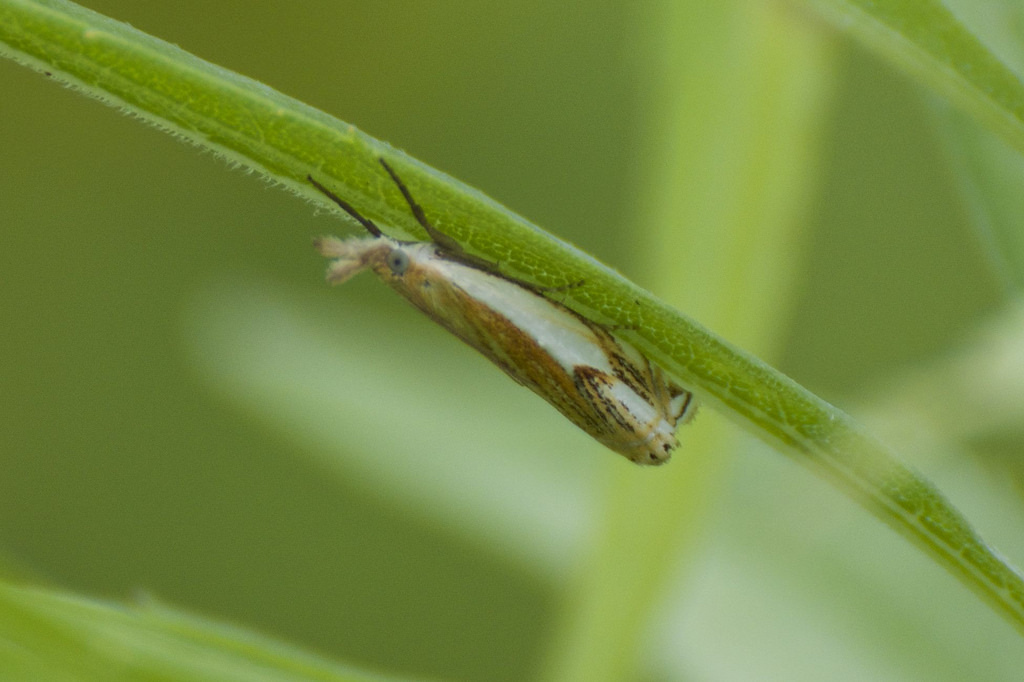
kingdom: Animalia
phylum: Arthropoda
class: Insecta
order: Lepidoptera
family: Crambidae
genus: Crambus
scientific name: Crambus agitatellus
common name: Double-banded grass-veneer
